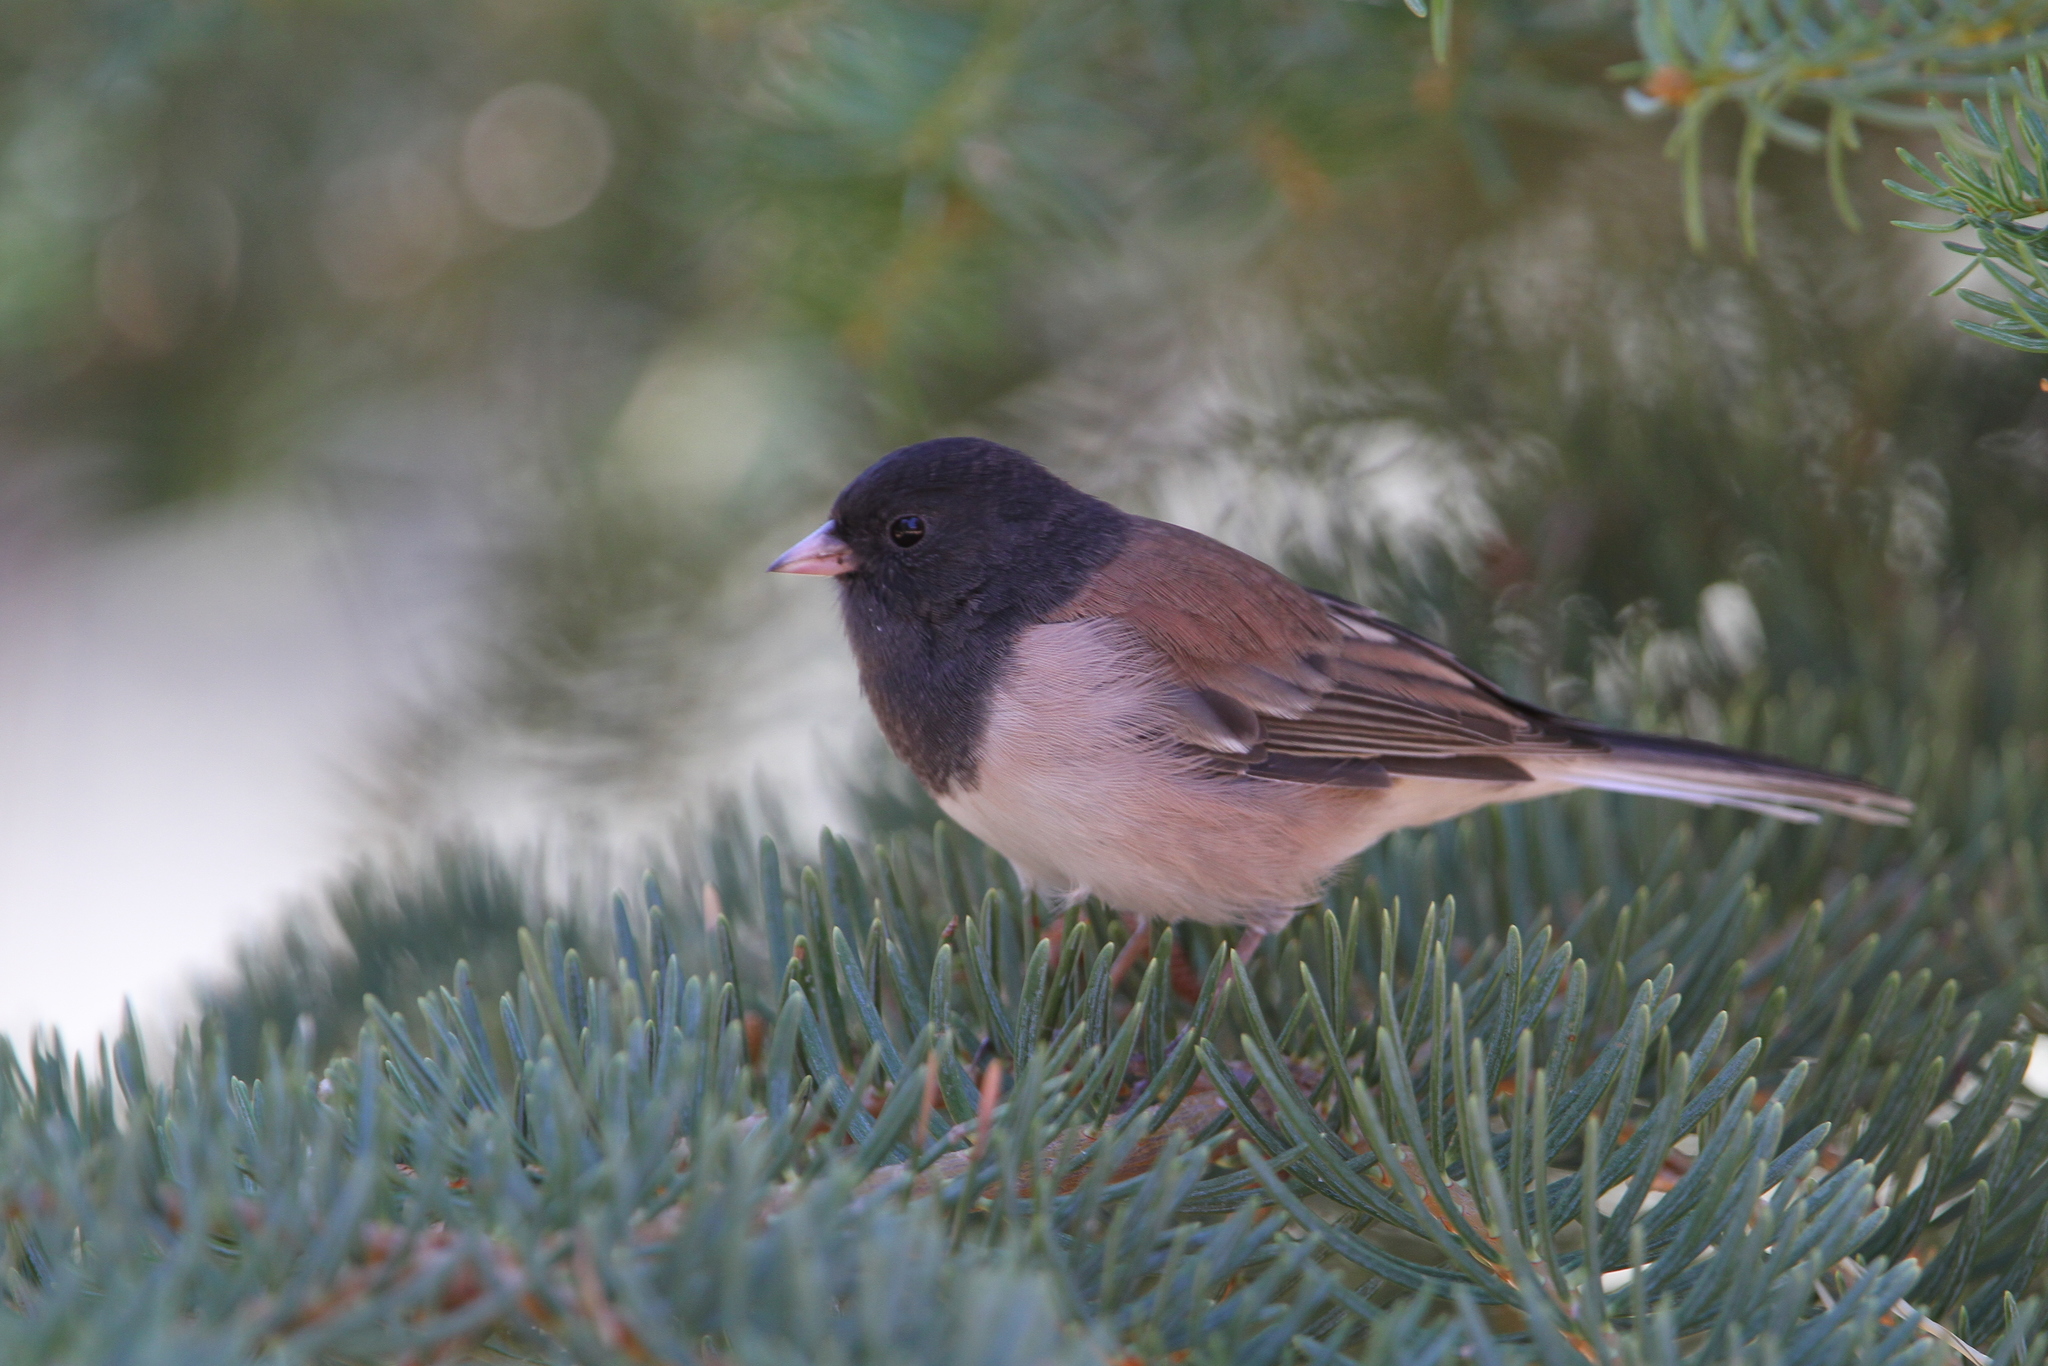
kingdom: Animalia
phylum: Chordata
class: Aves
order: Passeriformes
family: Passerellidae
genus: Junco
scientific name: Junco hyemalis
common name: Dark-eyed junco
